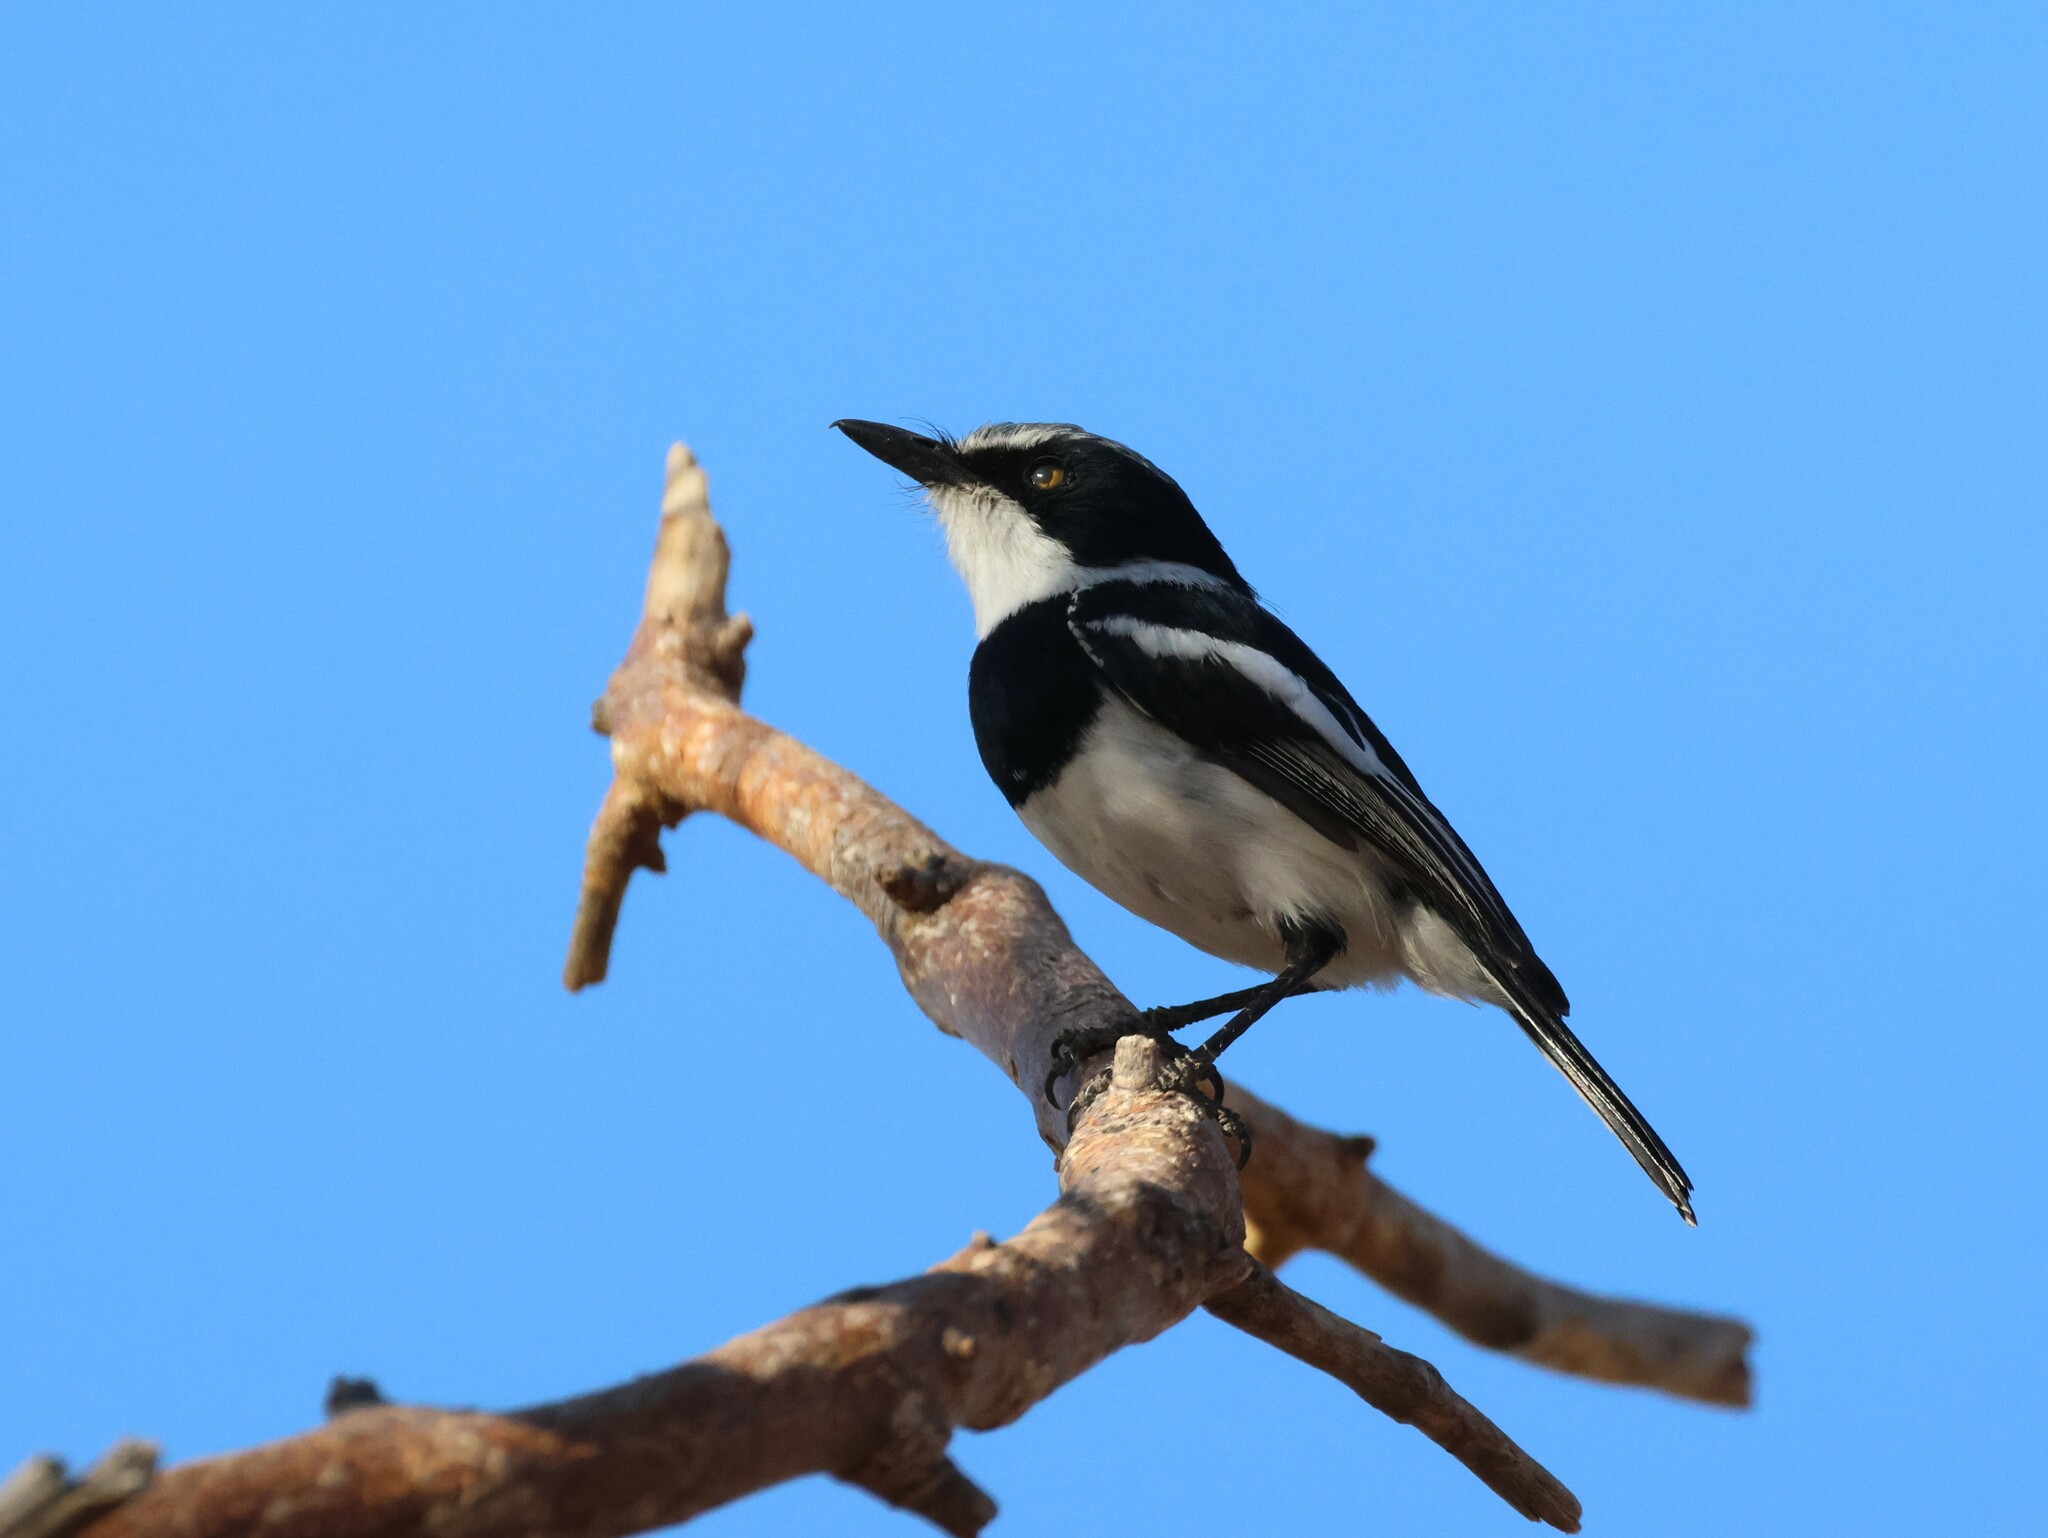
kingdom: Animalia
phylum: Chordata
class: Aves
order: Passeriformes
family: Platysteiridae
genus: Batis
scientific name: Batis pririt
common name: Pririt batis
